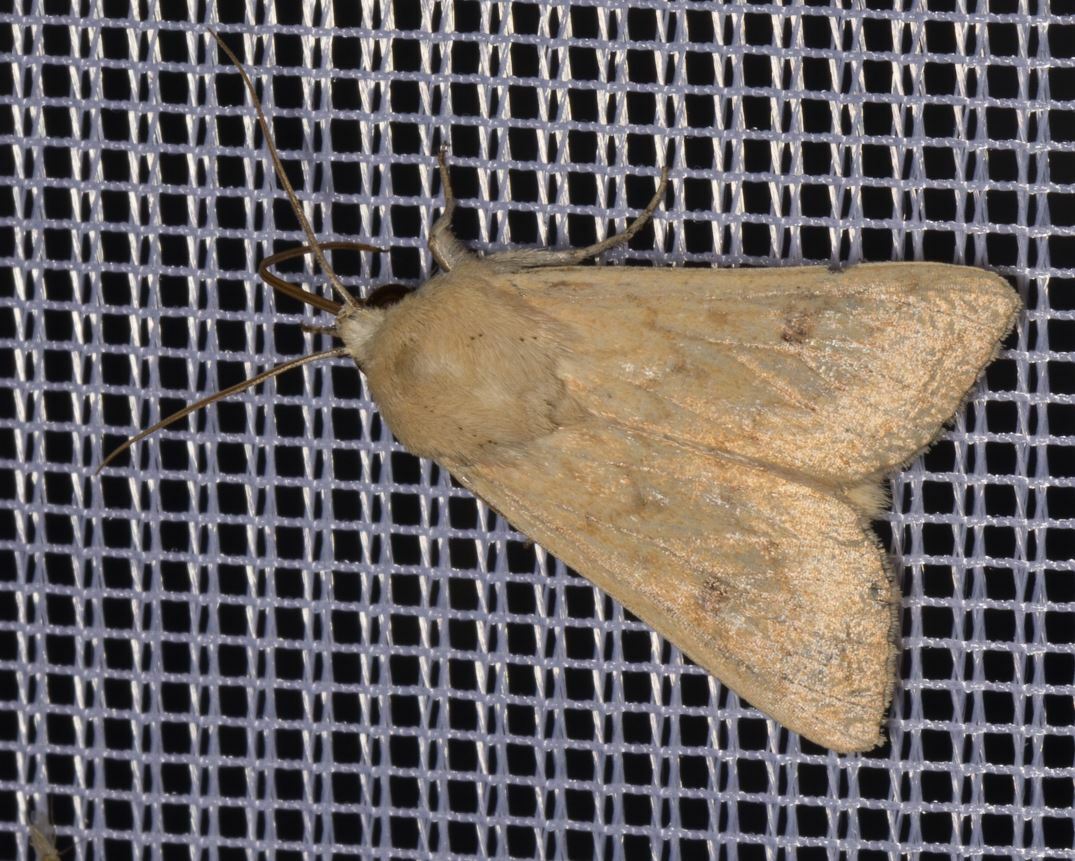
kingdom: Animalia
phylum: Arthropoda
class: Insecta
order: Lepidoptera
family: Noctuidae
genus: Mythimna
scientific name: Mythimna vitellina
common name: Delicate
